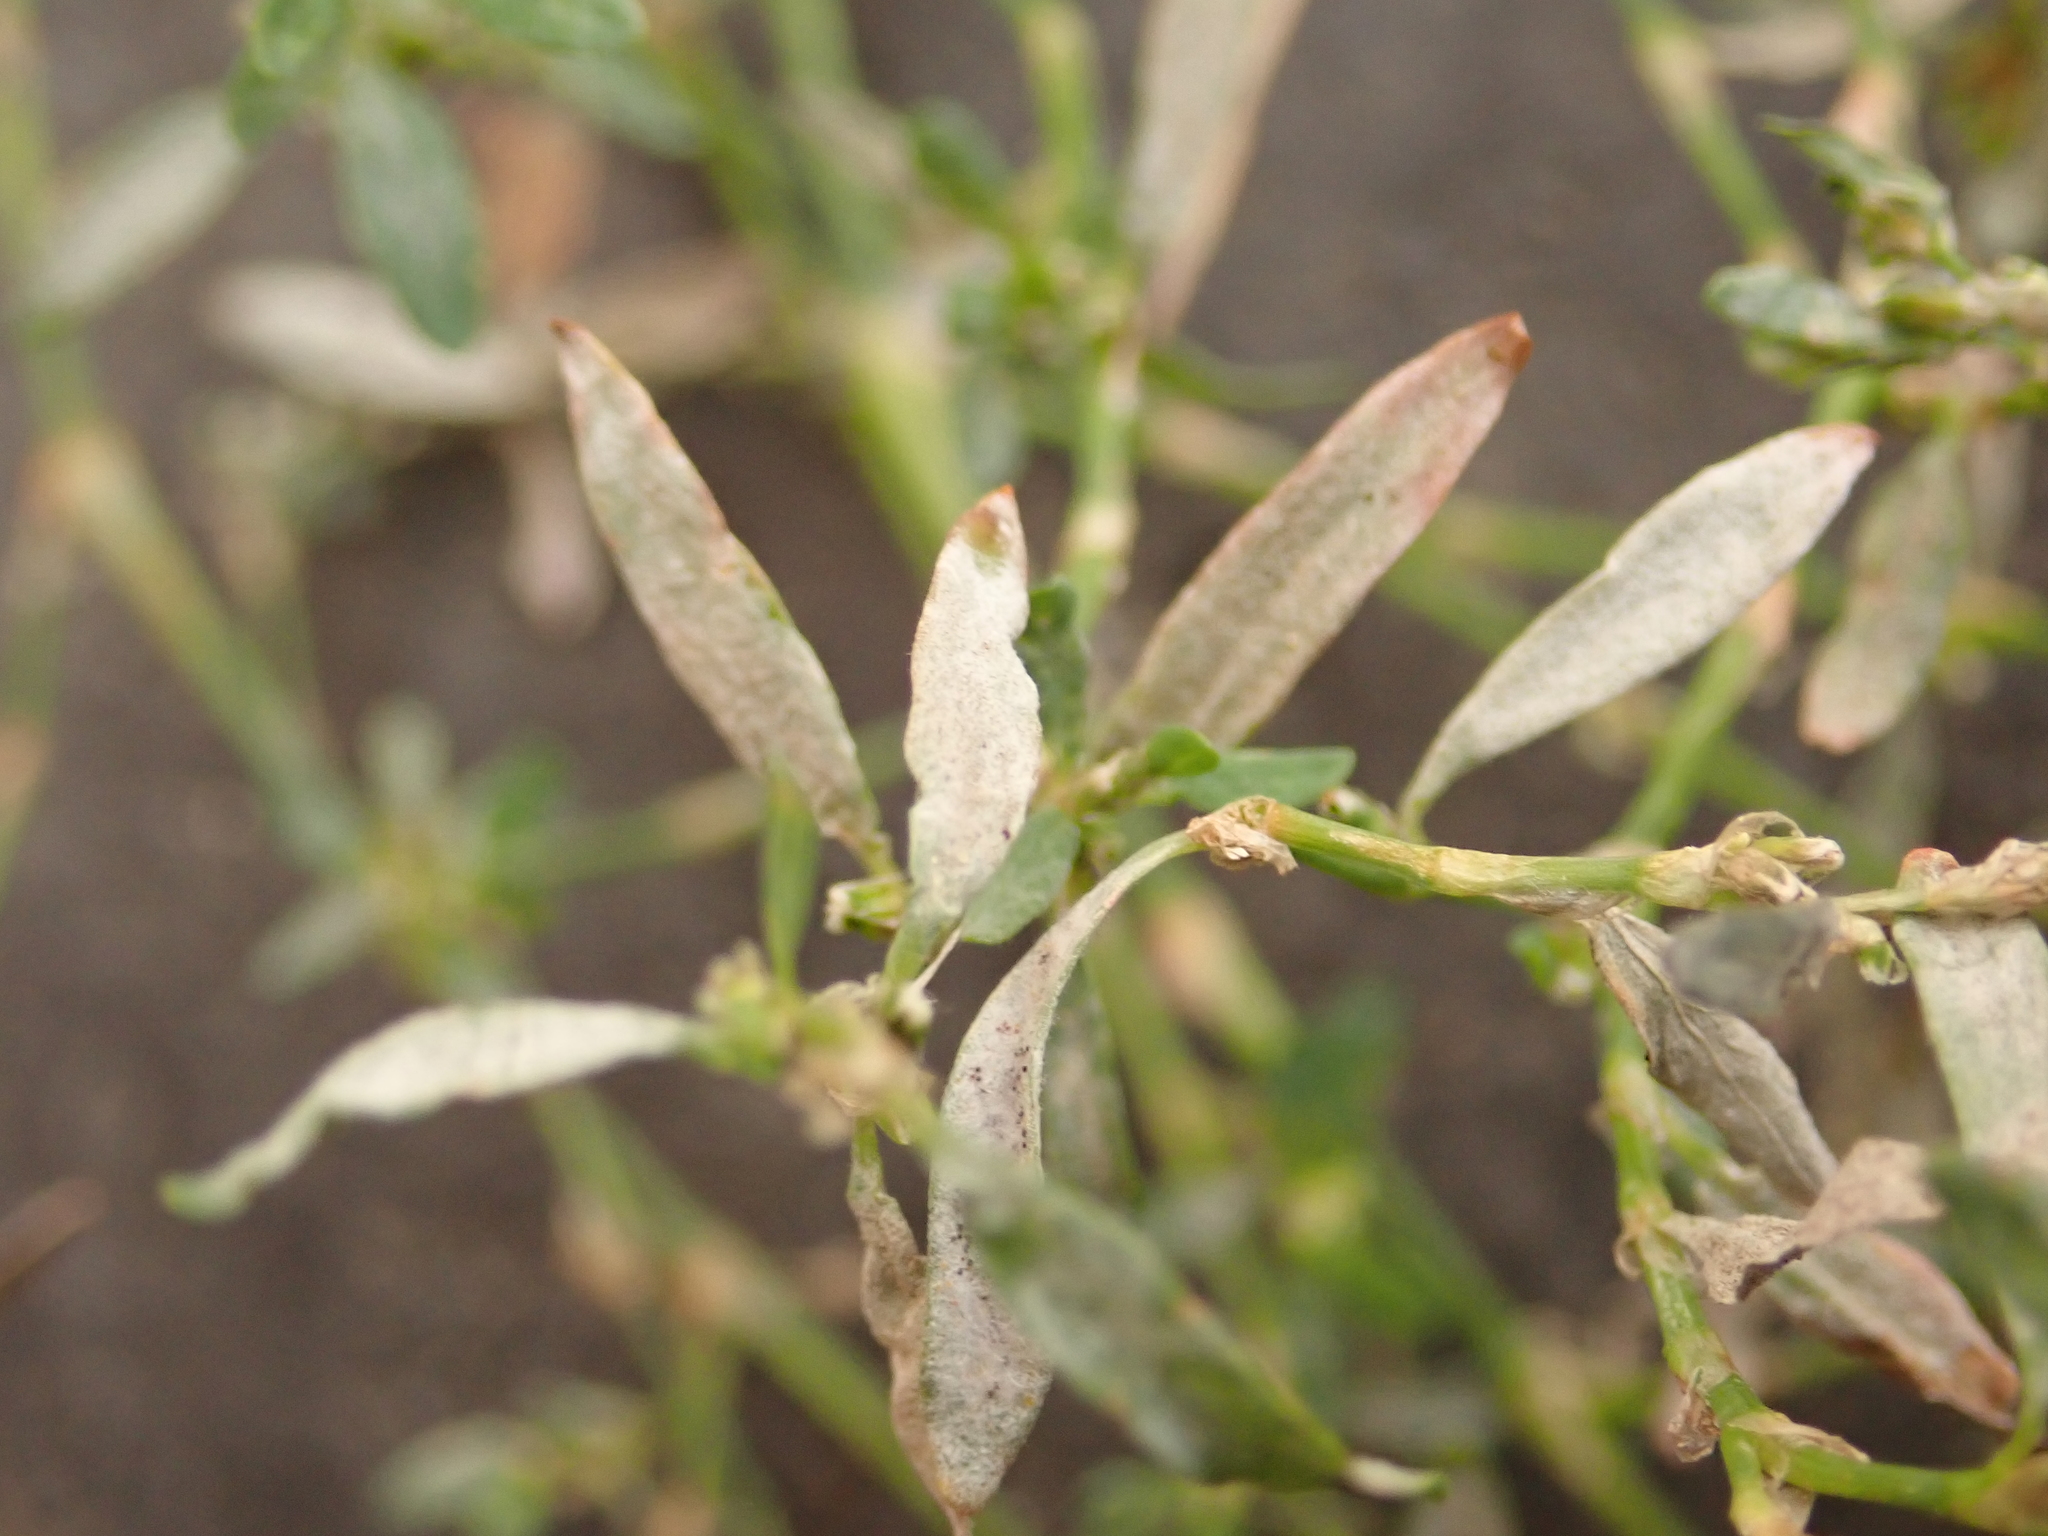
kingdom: Fungi
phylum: Ascomycota
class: Leotiomycetes
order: Helotiales
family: Erysiphaceae
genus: Erysiphe
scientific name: Erysiphe polygoni
